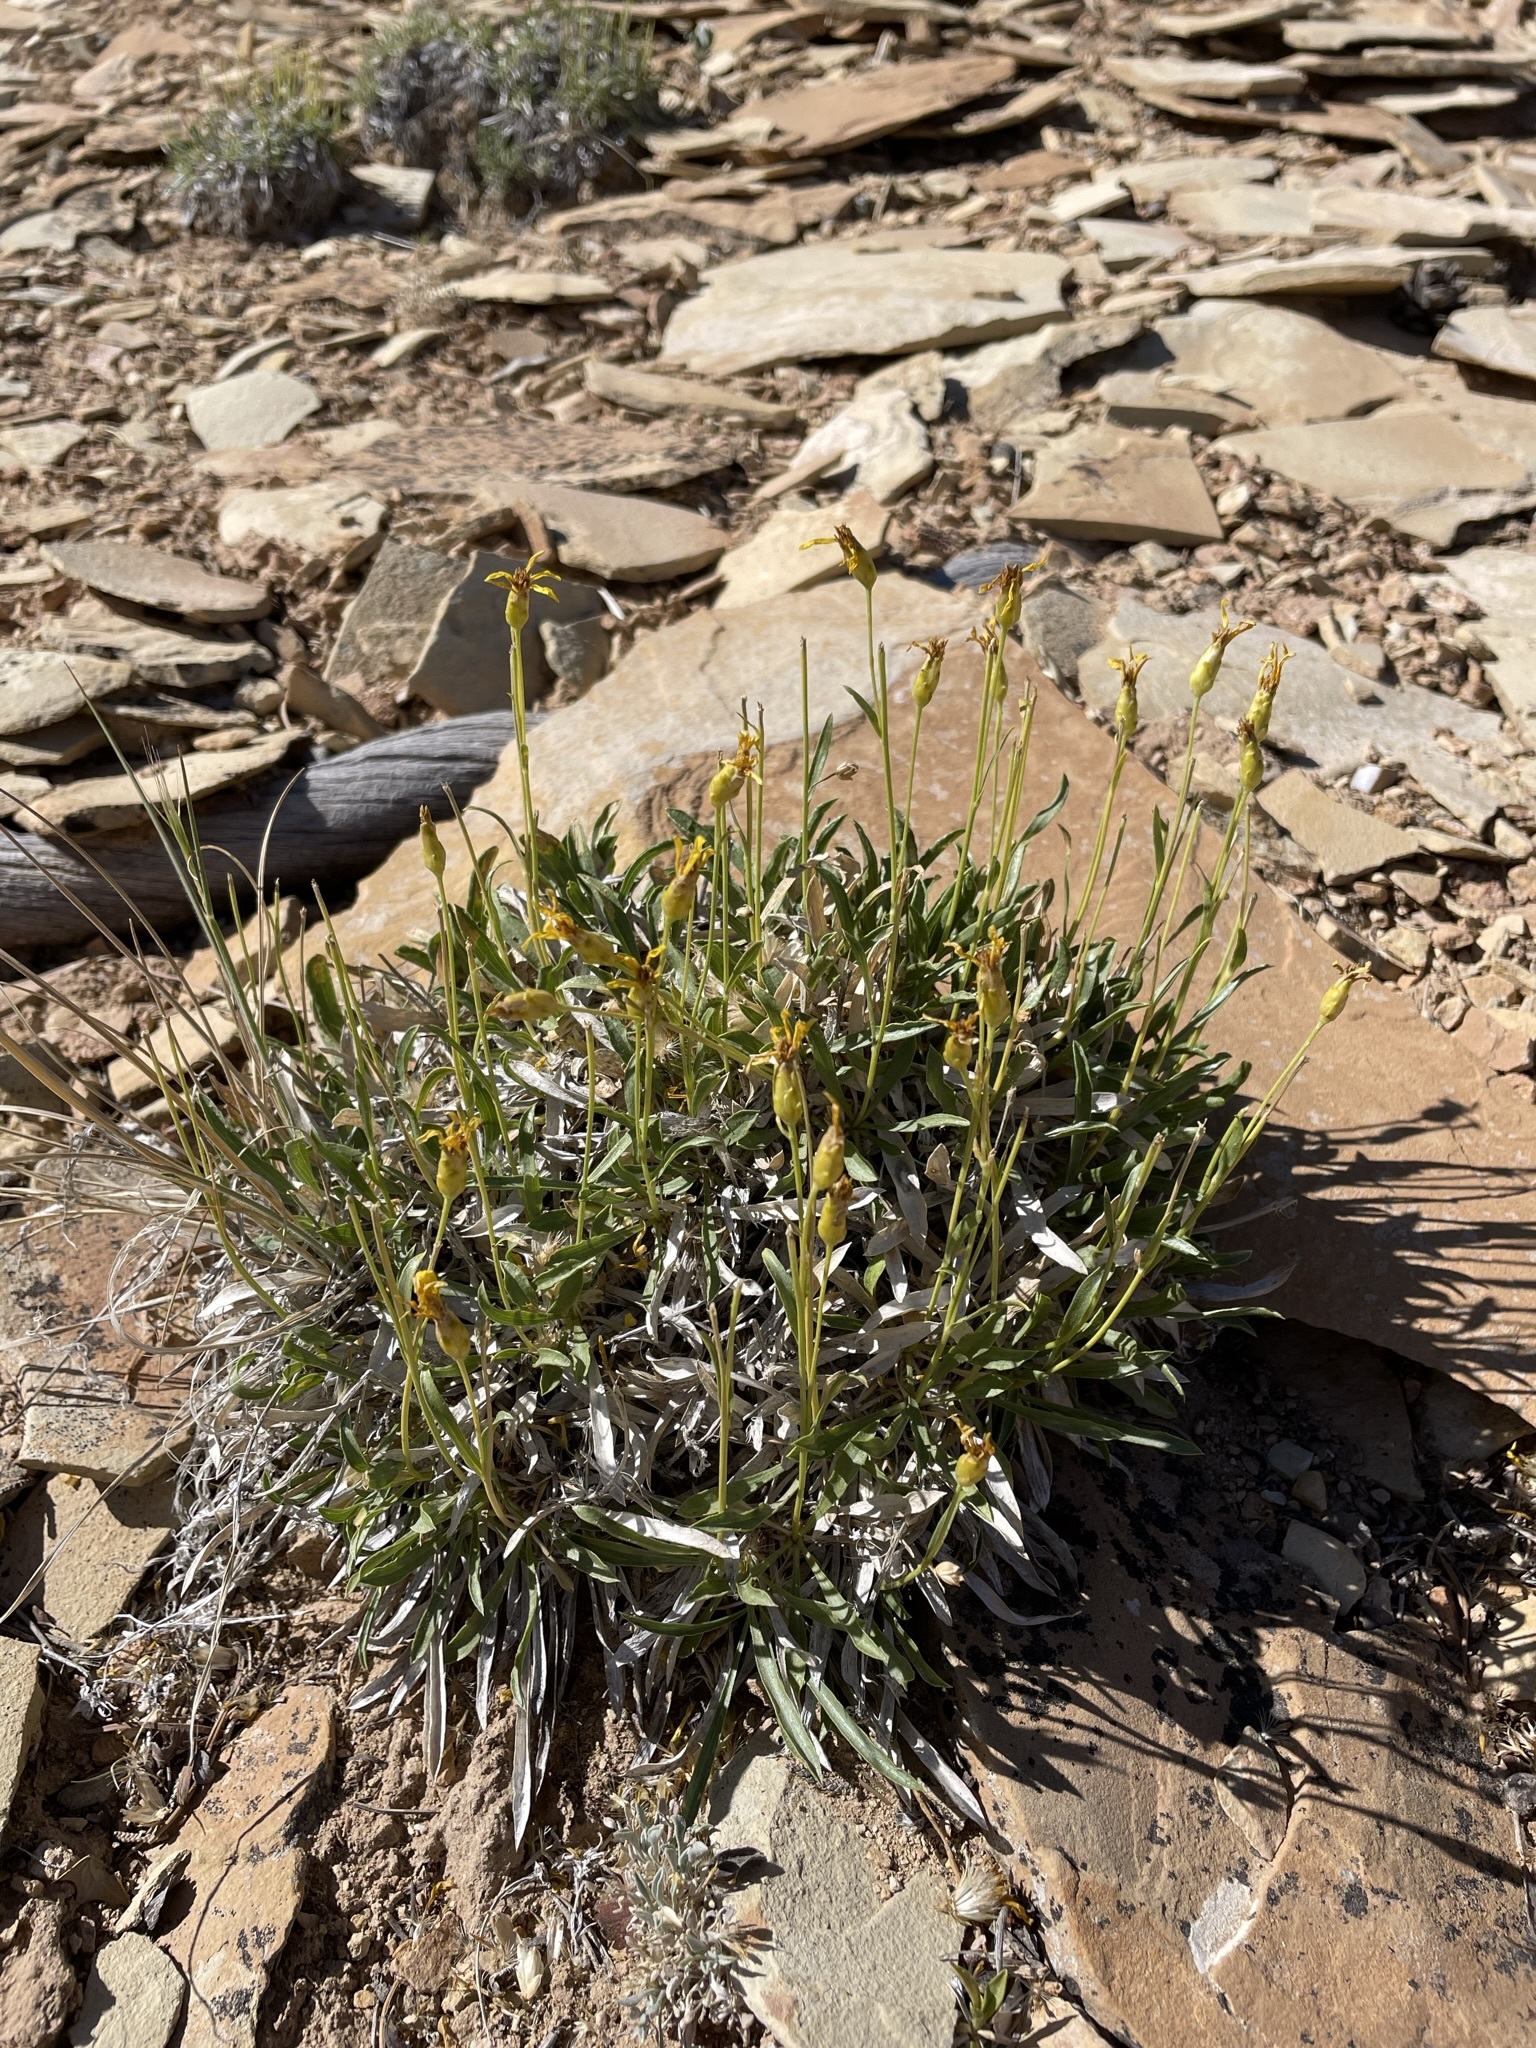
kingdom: Plantae
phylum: Tracheophyta
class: Magnoliopsida
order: Asterales
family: Asteraceae
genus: Stenotus
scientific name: Stenotus armerioides
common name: Thrifty goldenweed
